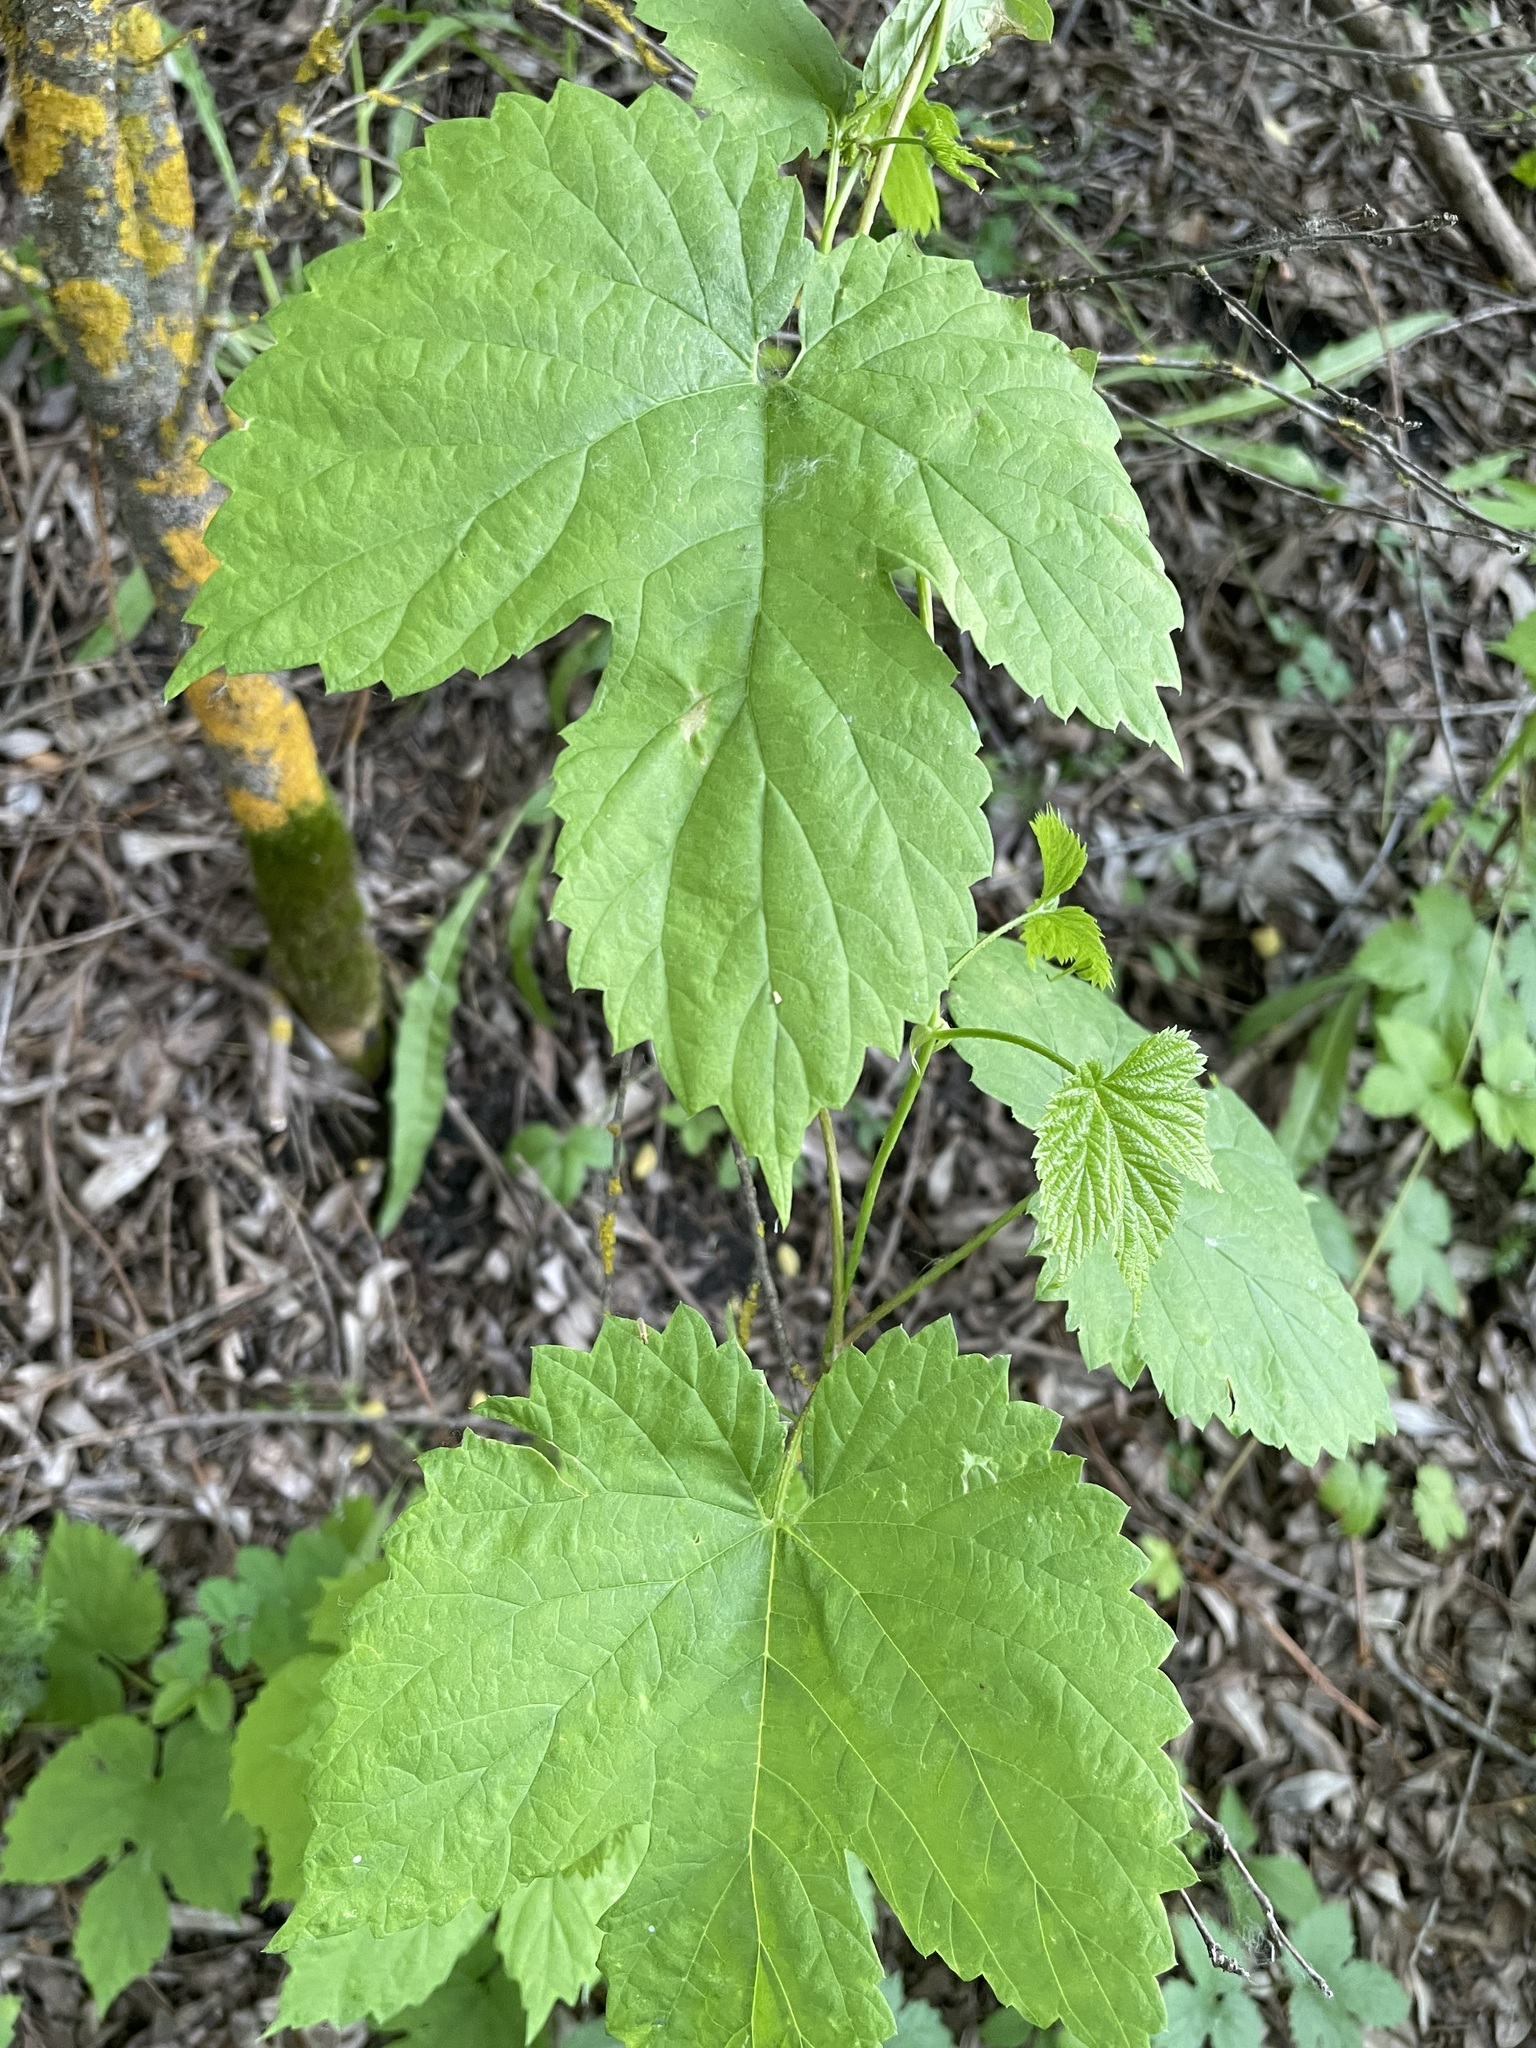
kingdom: Plantae
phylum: Tracheophyta
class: Magnoliopsida
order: Rosales
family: Cannabaceae
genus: Humulus
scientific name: Humulus lupulus
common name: Hop
